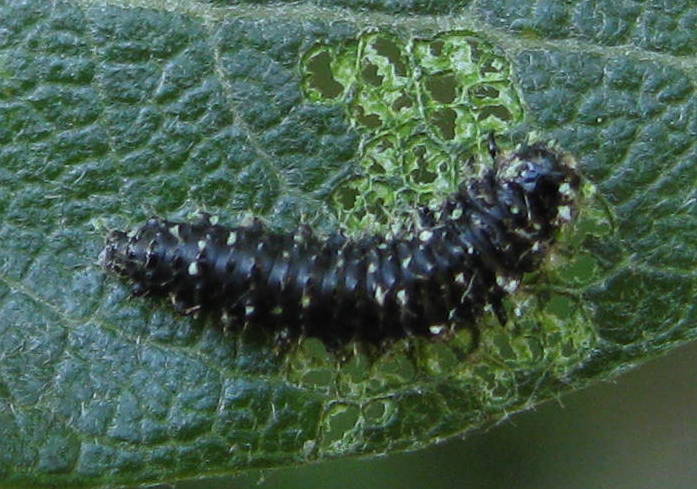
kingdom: Animalia
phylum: Arthropoda
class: Insecta
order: Lepidoptera
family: Nymphalidae
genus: Vanessa
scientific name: Vanessa atalanta
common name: Red admiral
